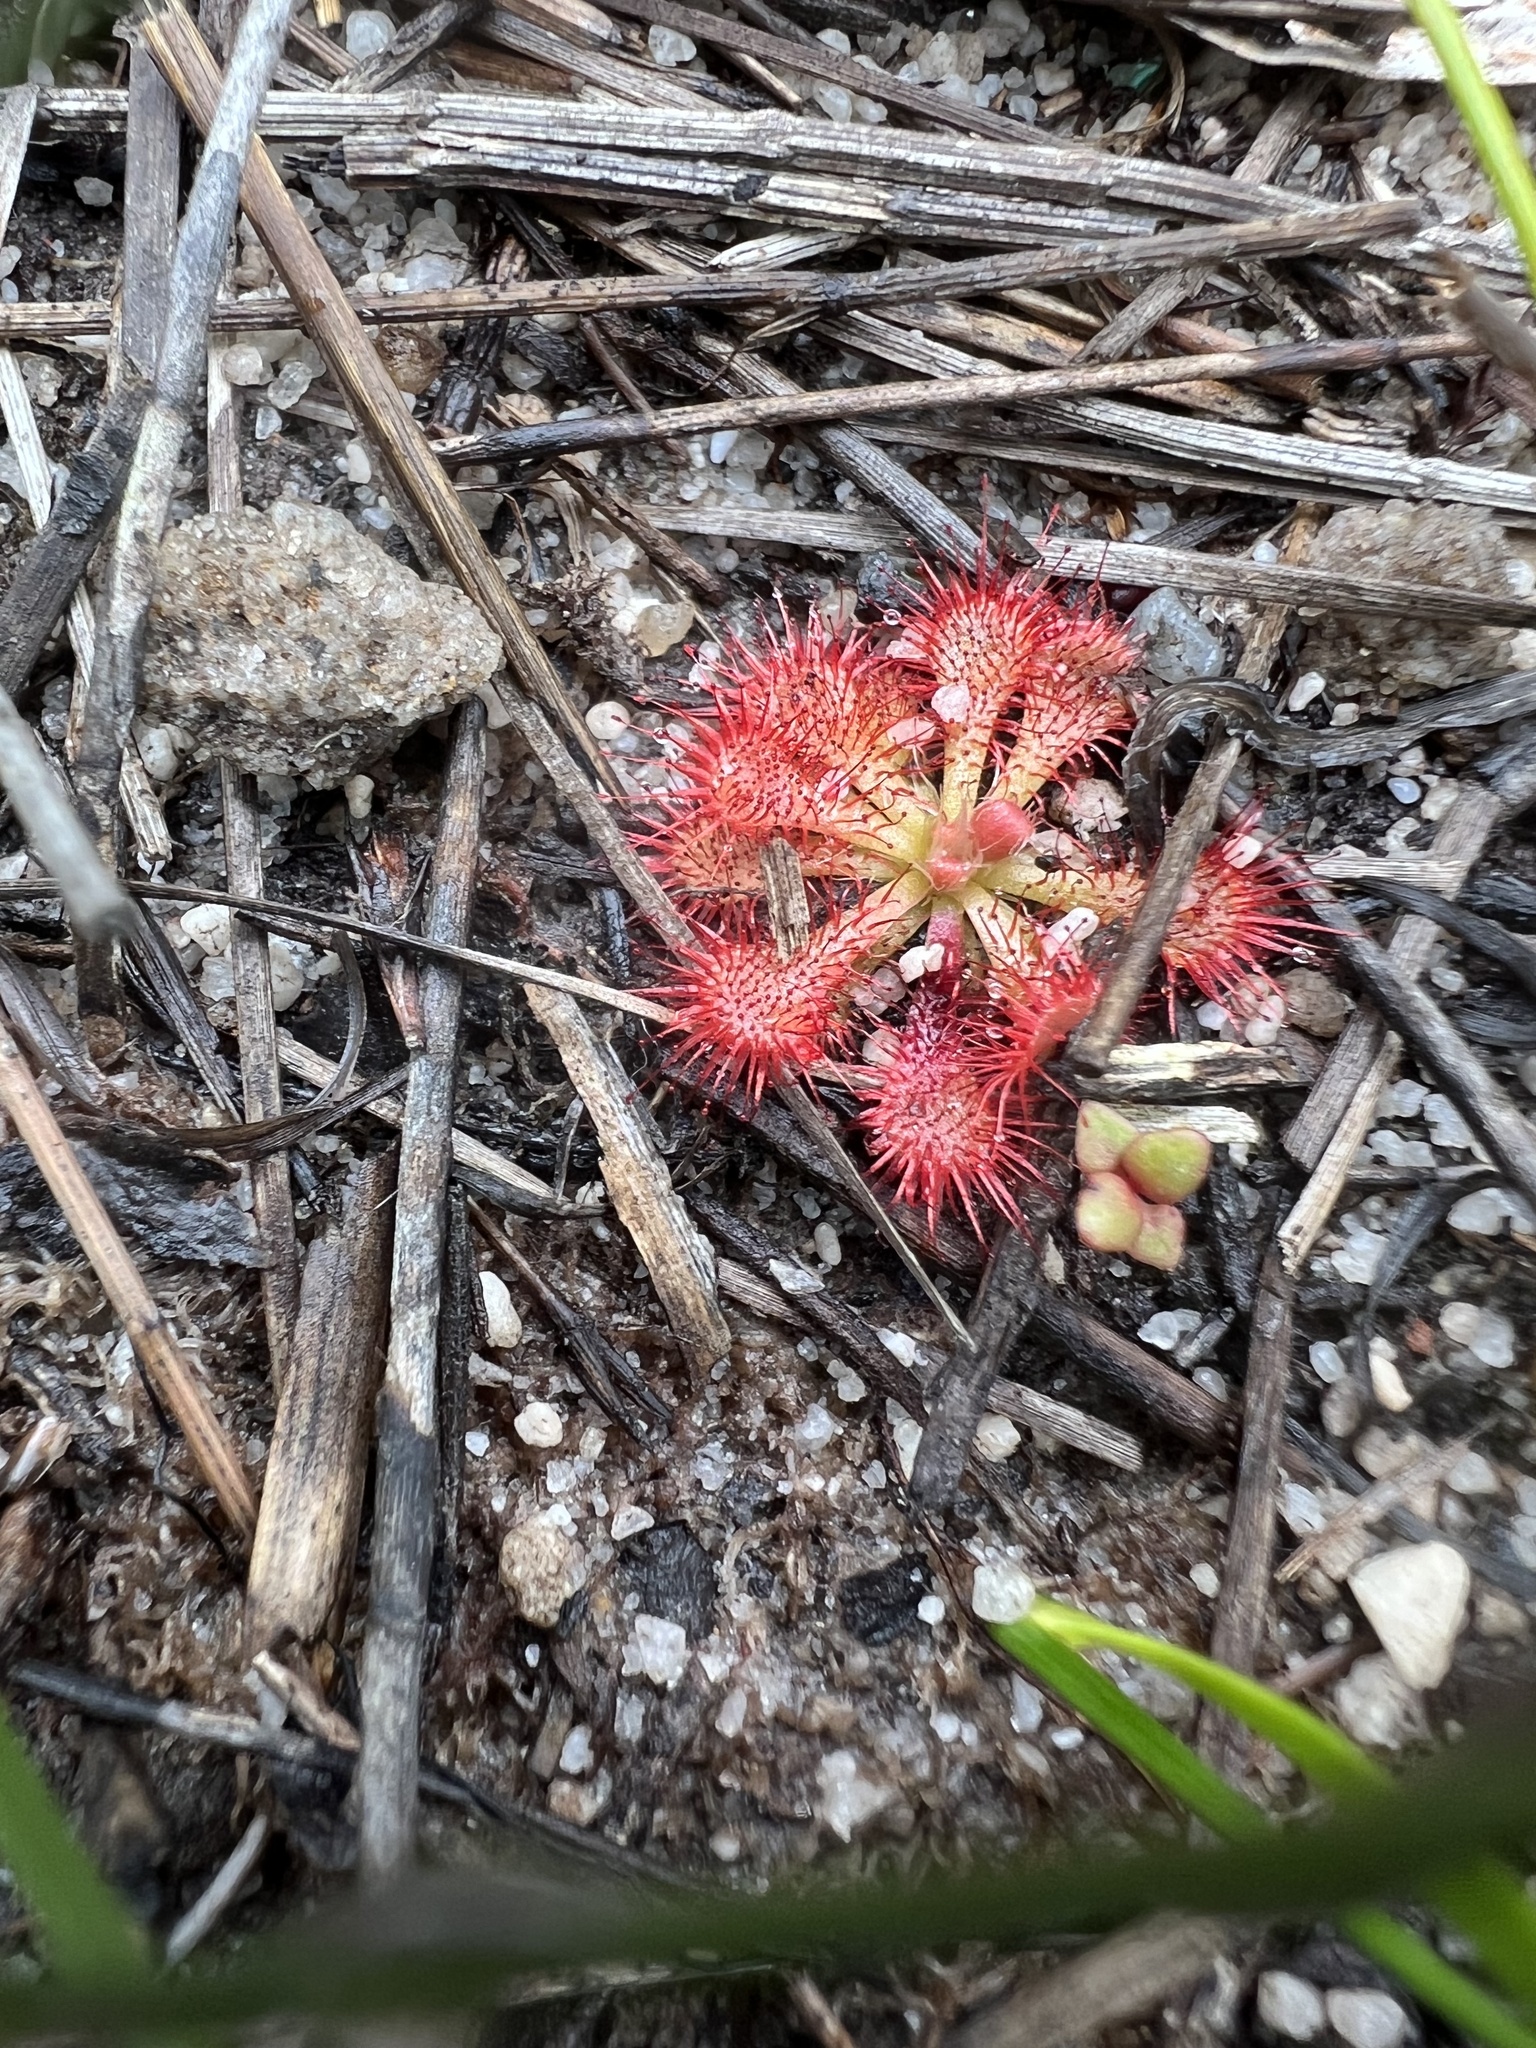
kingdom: Plantae
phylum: Tracheophyta
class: Magnoliopsida
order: Caryophyllales
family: Droseraceae
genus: Drosera
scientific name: Drosera spatulata
